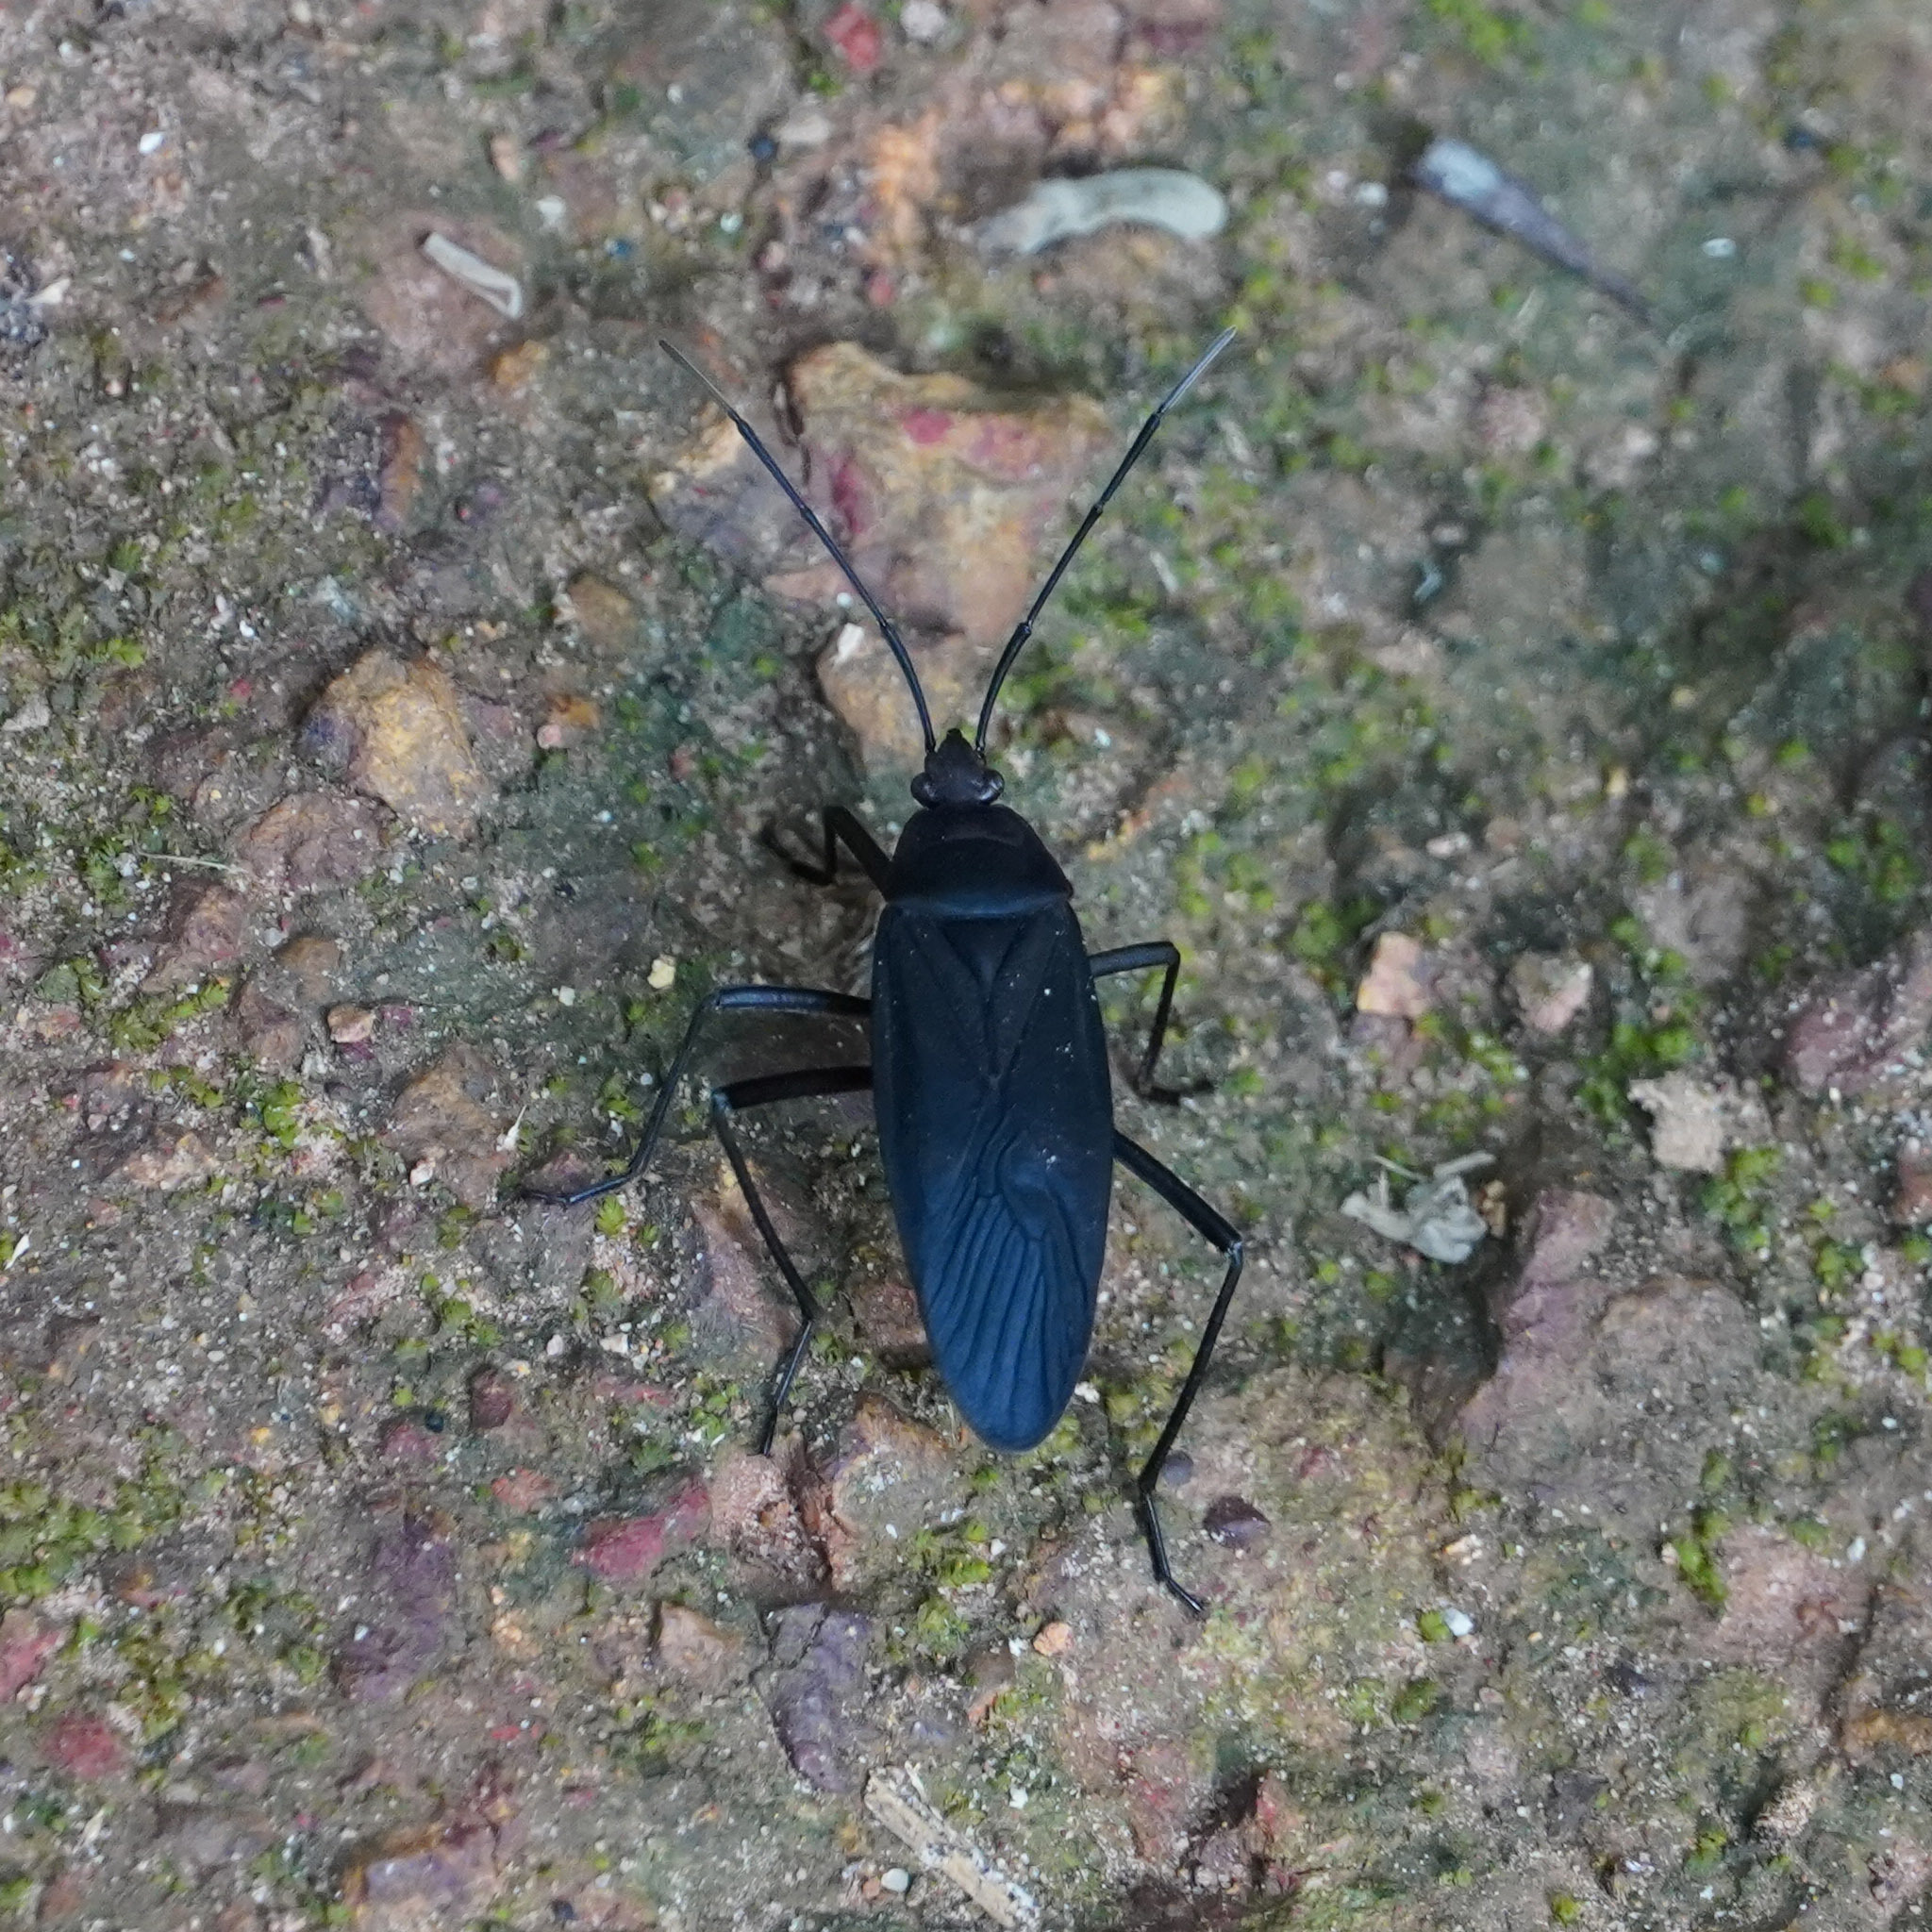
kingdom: Animalia
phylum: Arthropoda
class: Insecta
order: Hemiptera
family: Pyrrhocoridae
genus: Melamphaus
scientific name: Melamphaus faber
